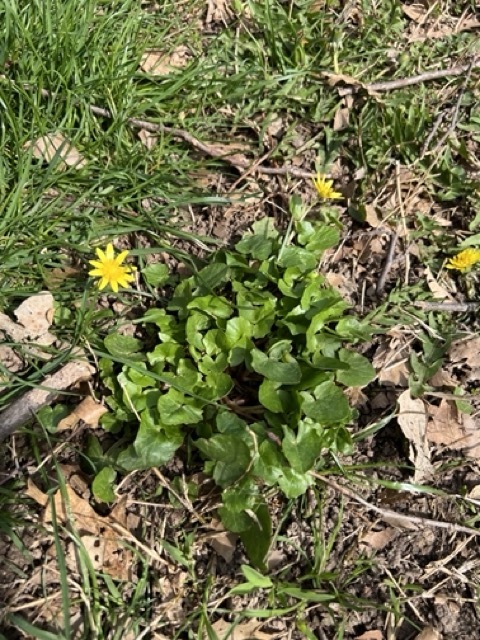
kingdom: Plantae
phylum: Tracheophyta
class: Magnoliopsida
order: Ranunculales
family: Ranunculaceae
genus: Ficaria
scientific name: Ficaria verna
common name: Lesser celandine
